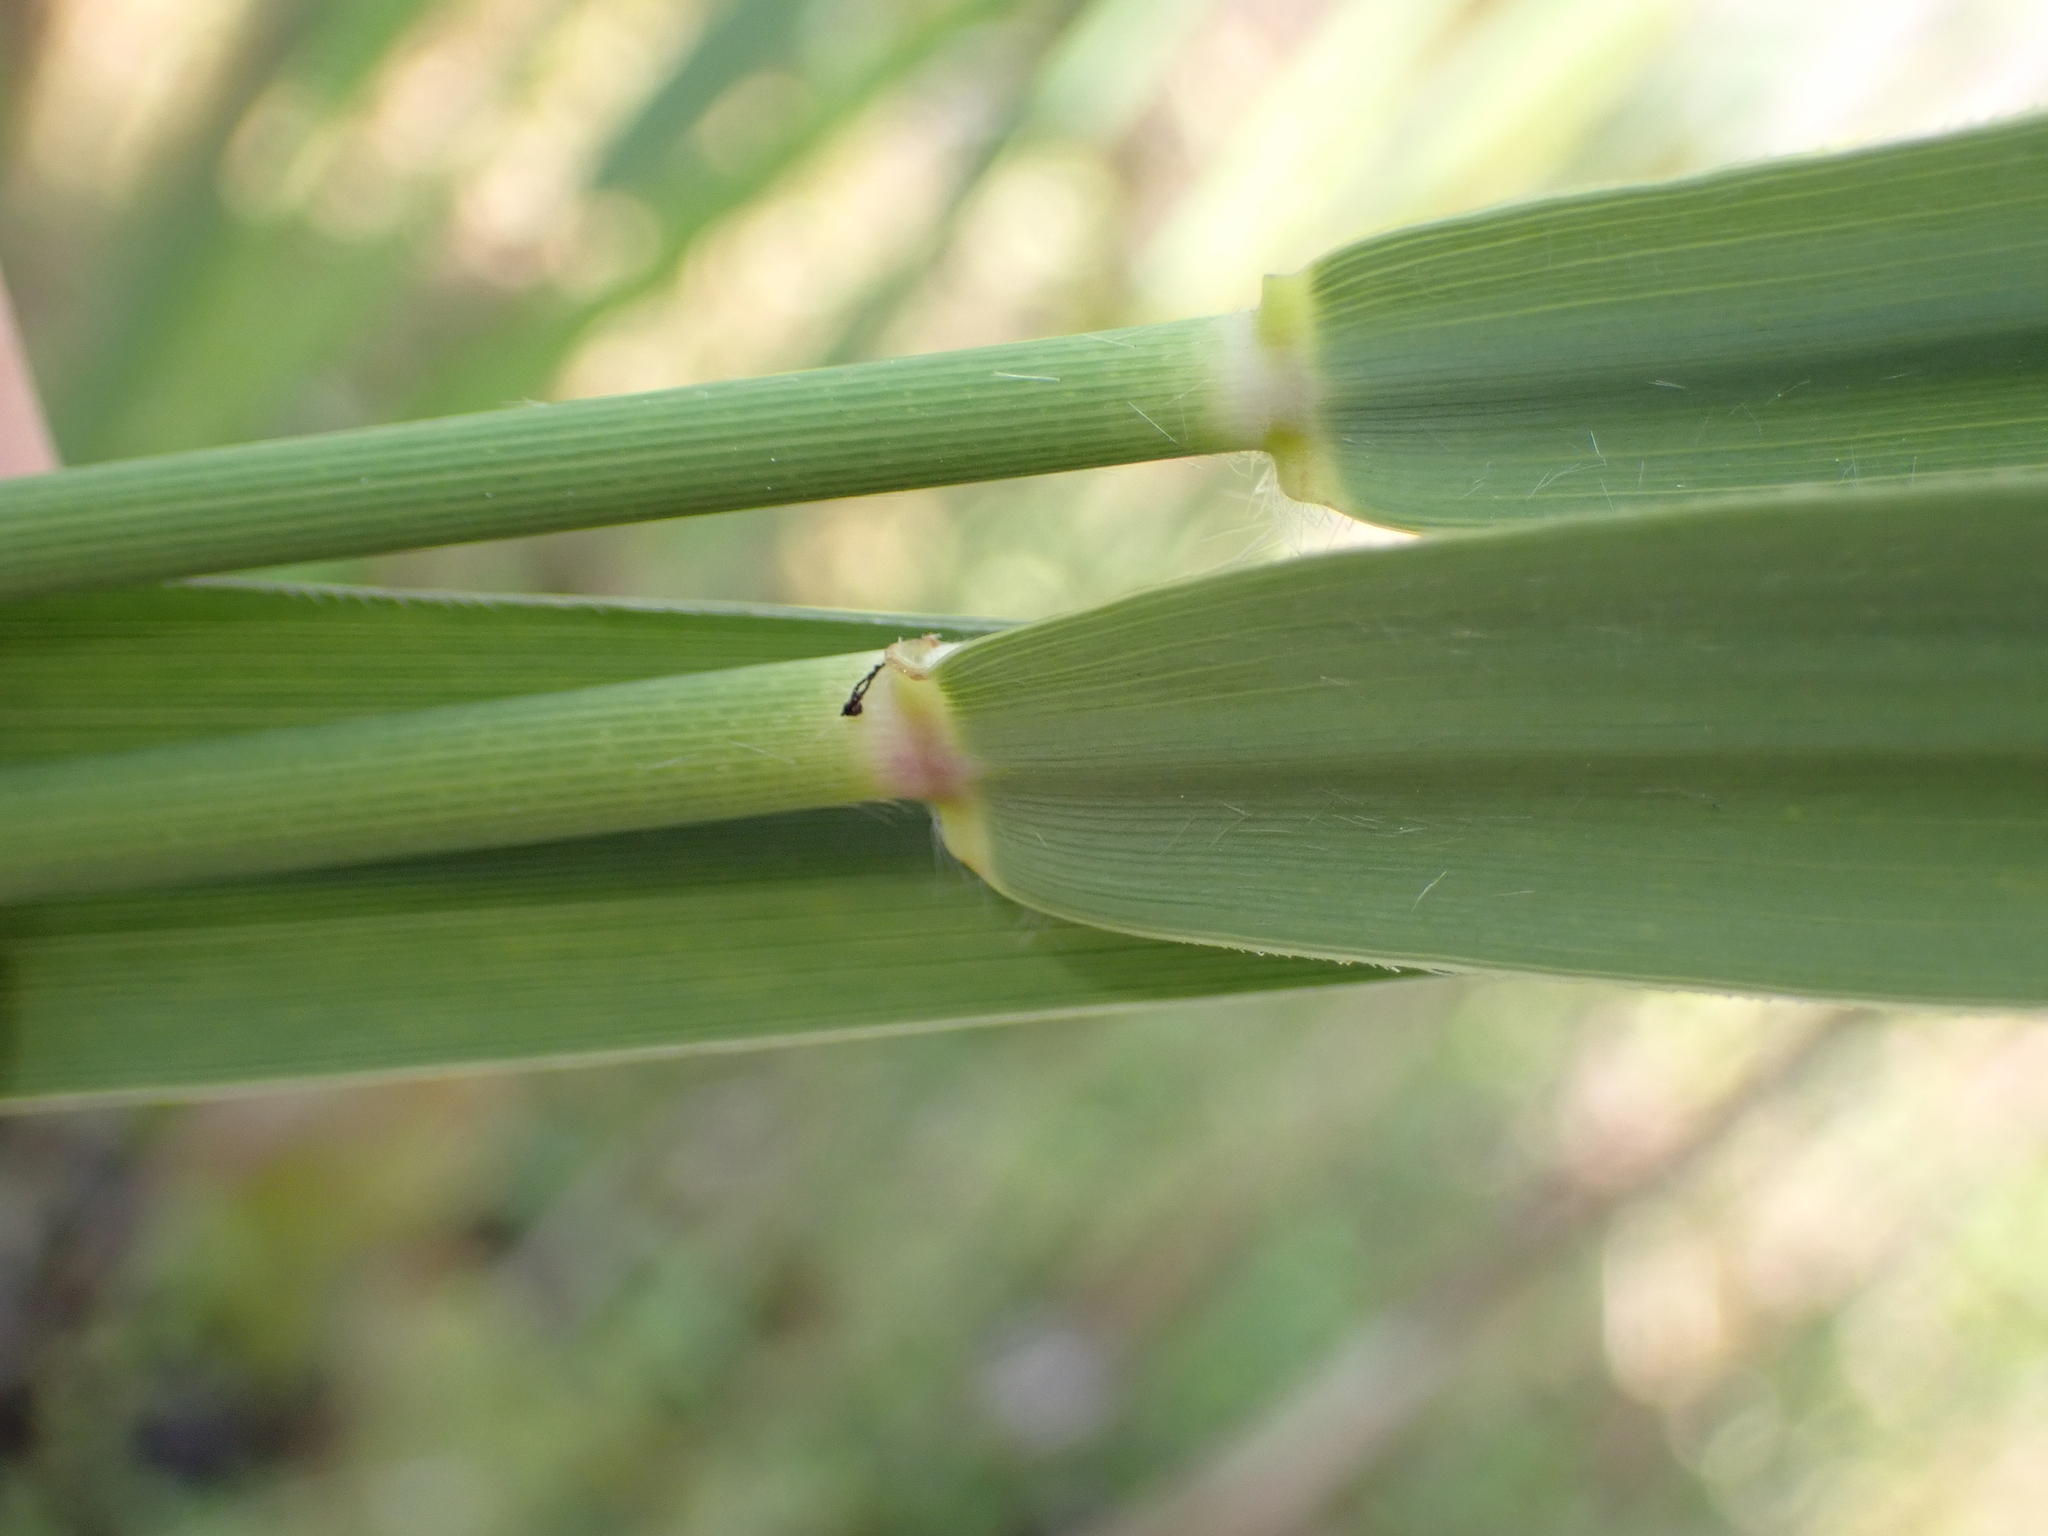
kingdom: Plantae
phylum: Tracheophyta
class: Liliopsida
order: Poales
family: Poaceae
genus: Phragmites
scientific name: Phragmites australis
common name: Common reed
